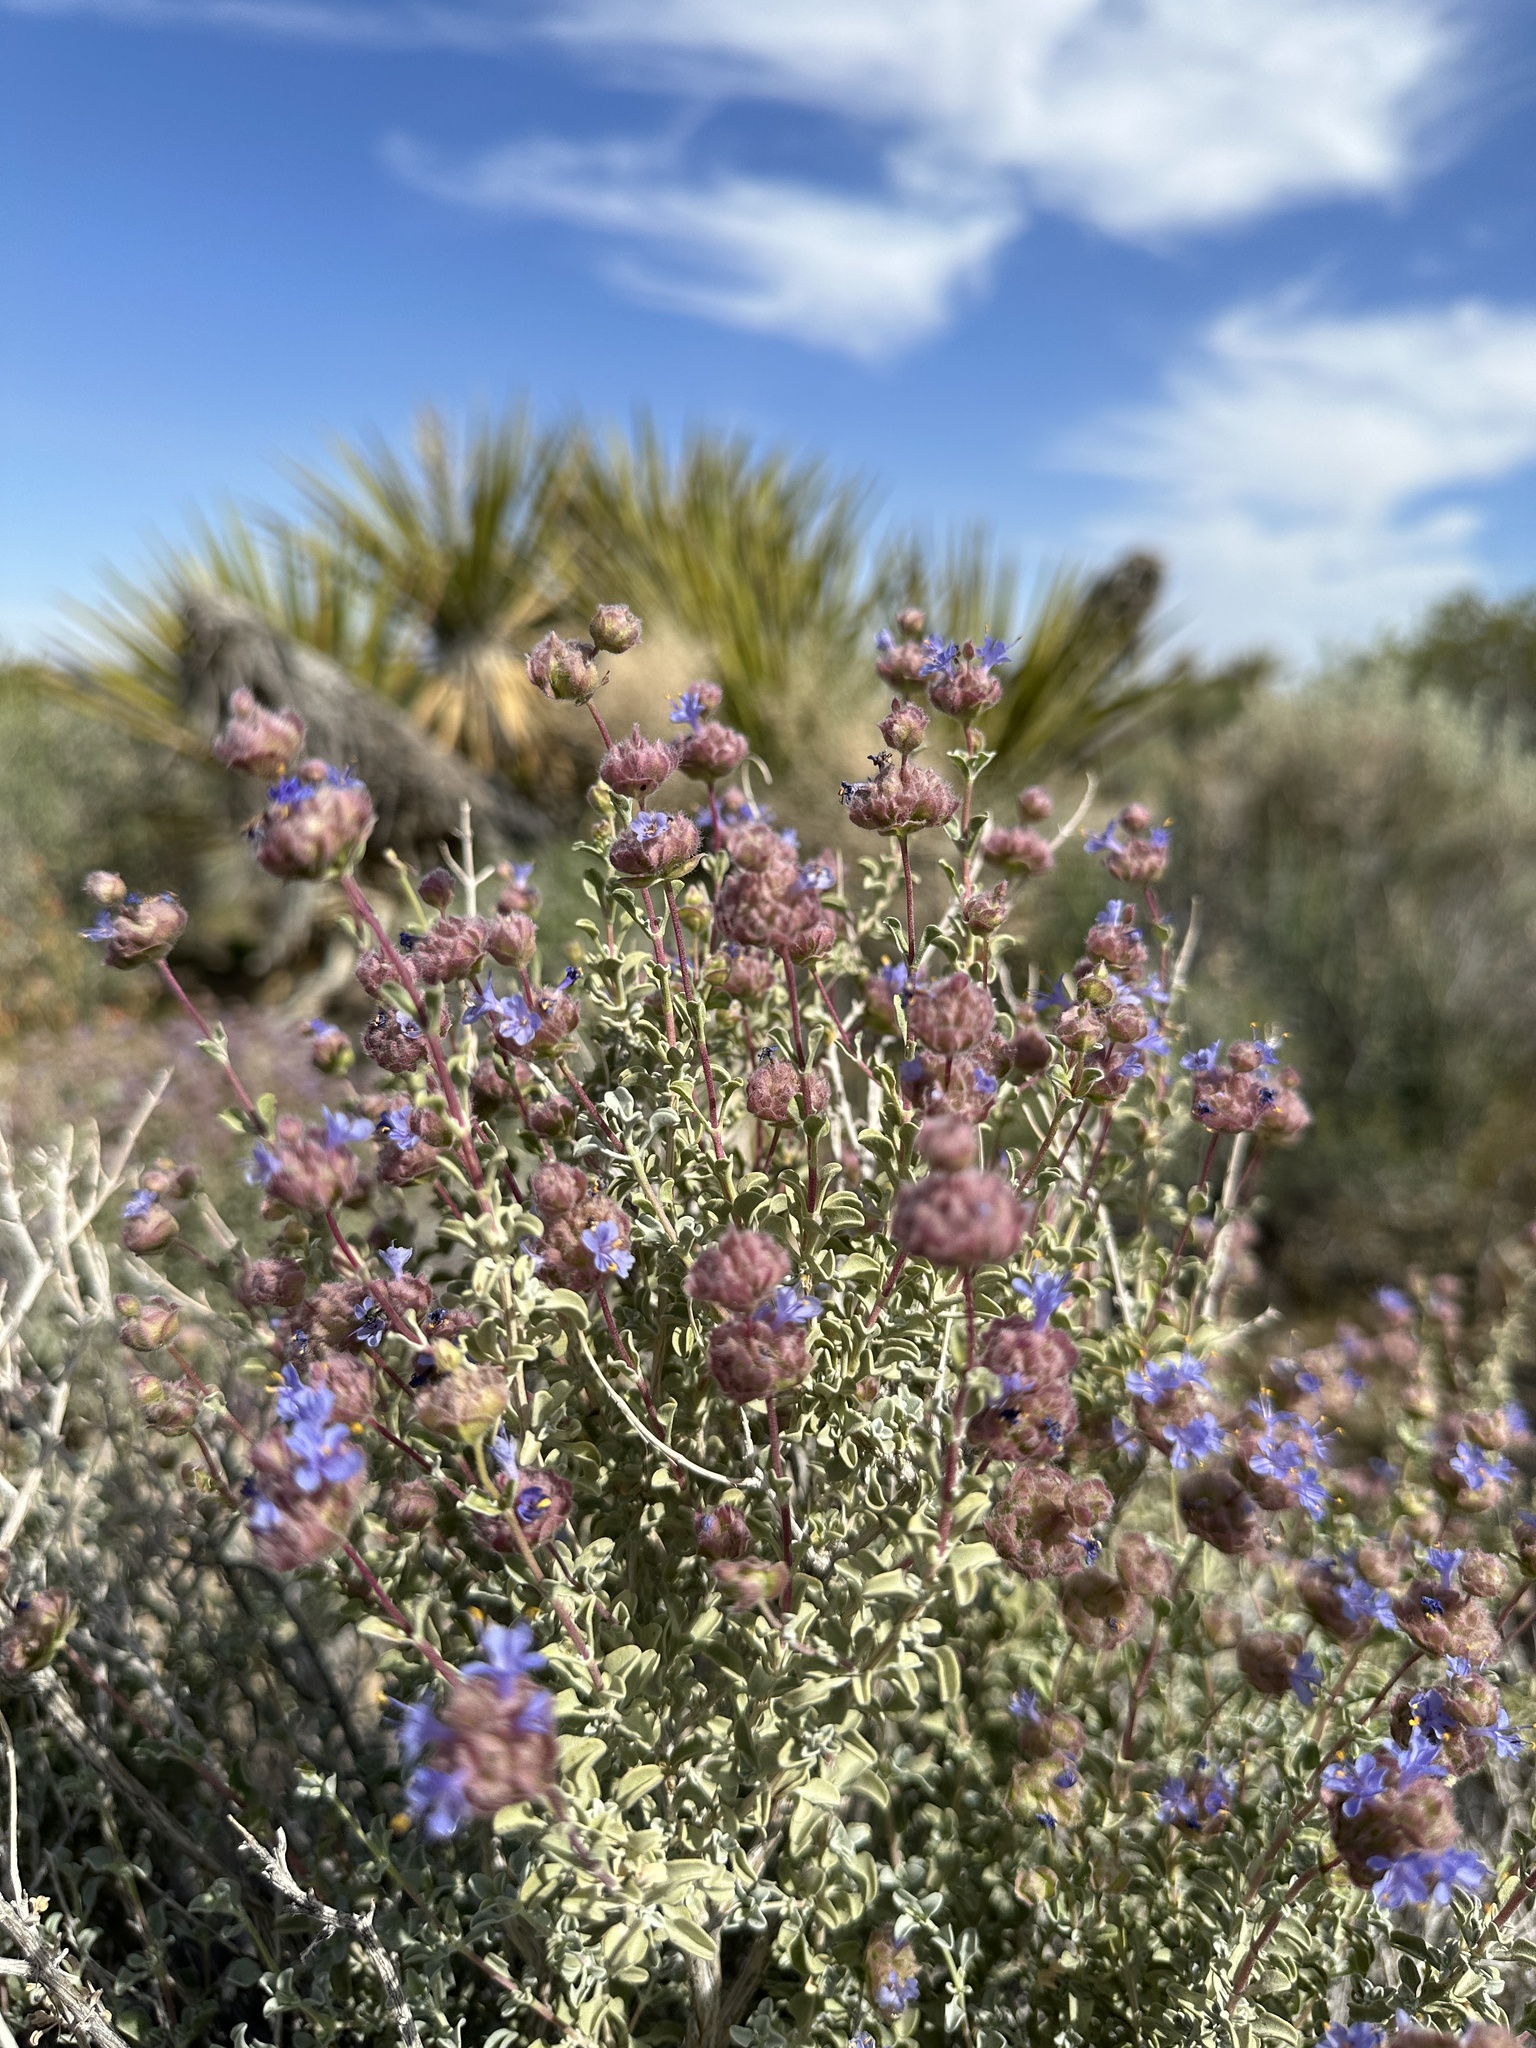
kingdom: Plantae
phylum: Tracheophyta
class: Magnoliopsida
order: Lamiales
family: Lamiaceae
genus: Salvia
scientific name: Salvia dorrii
